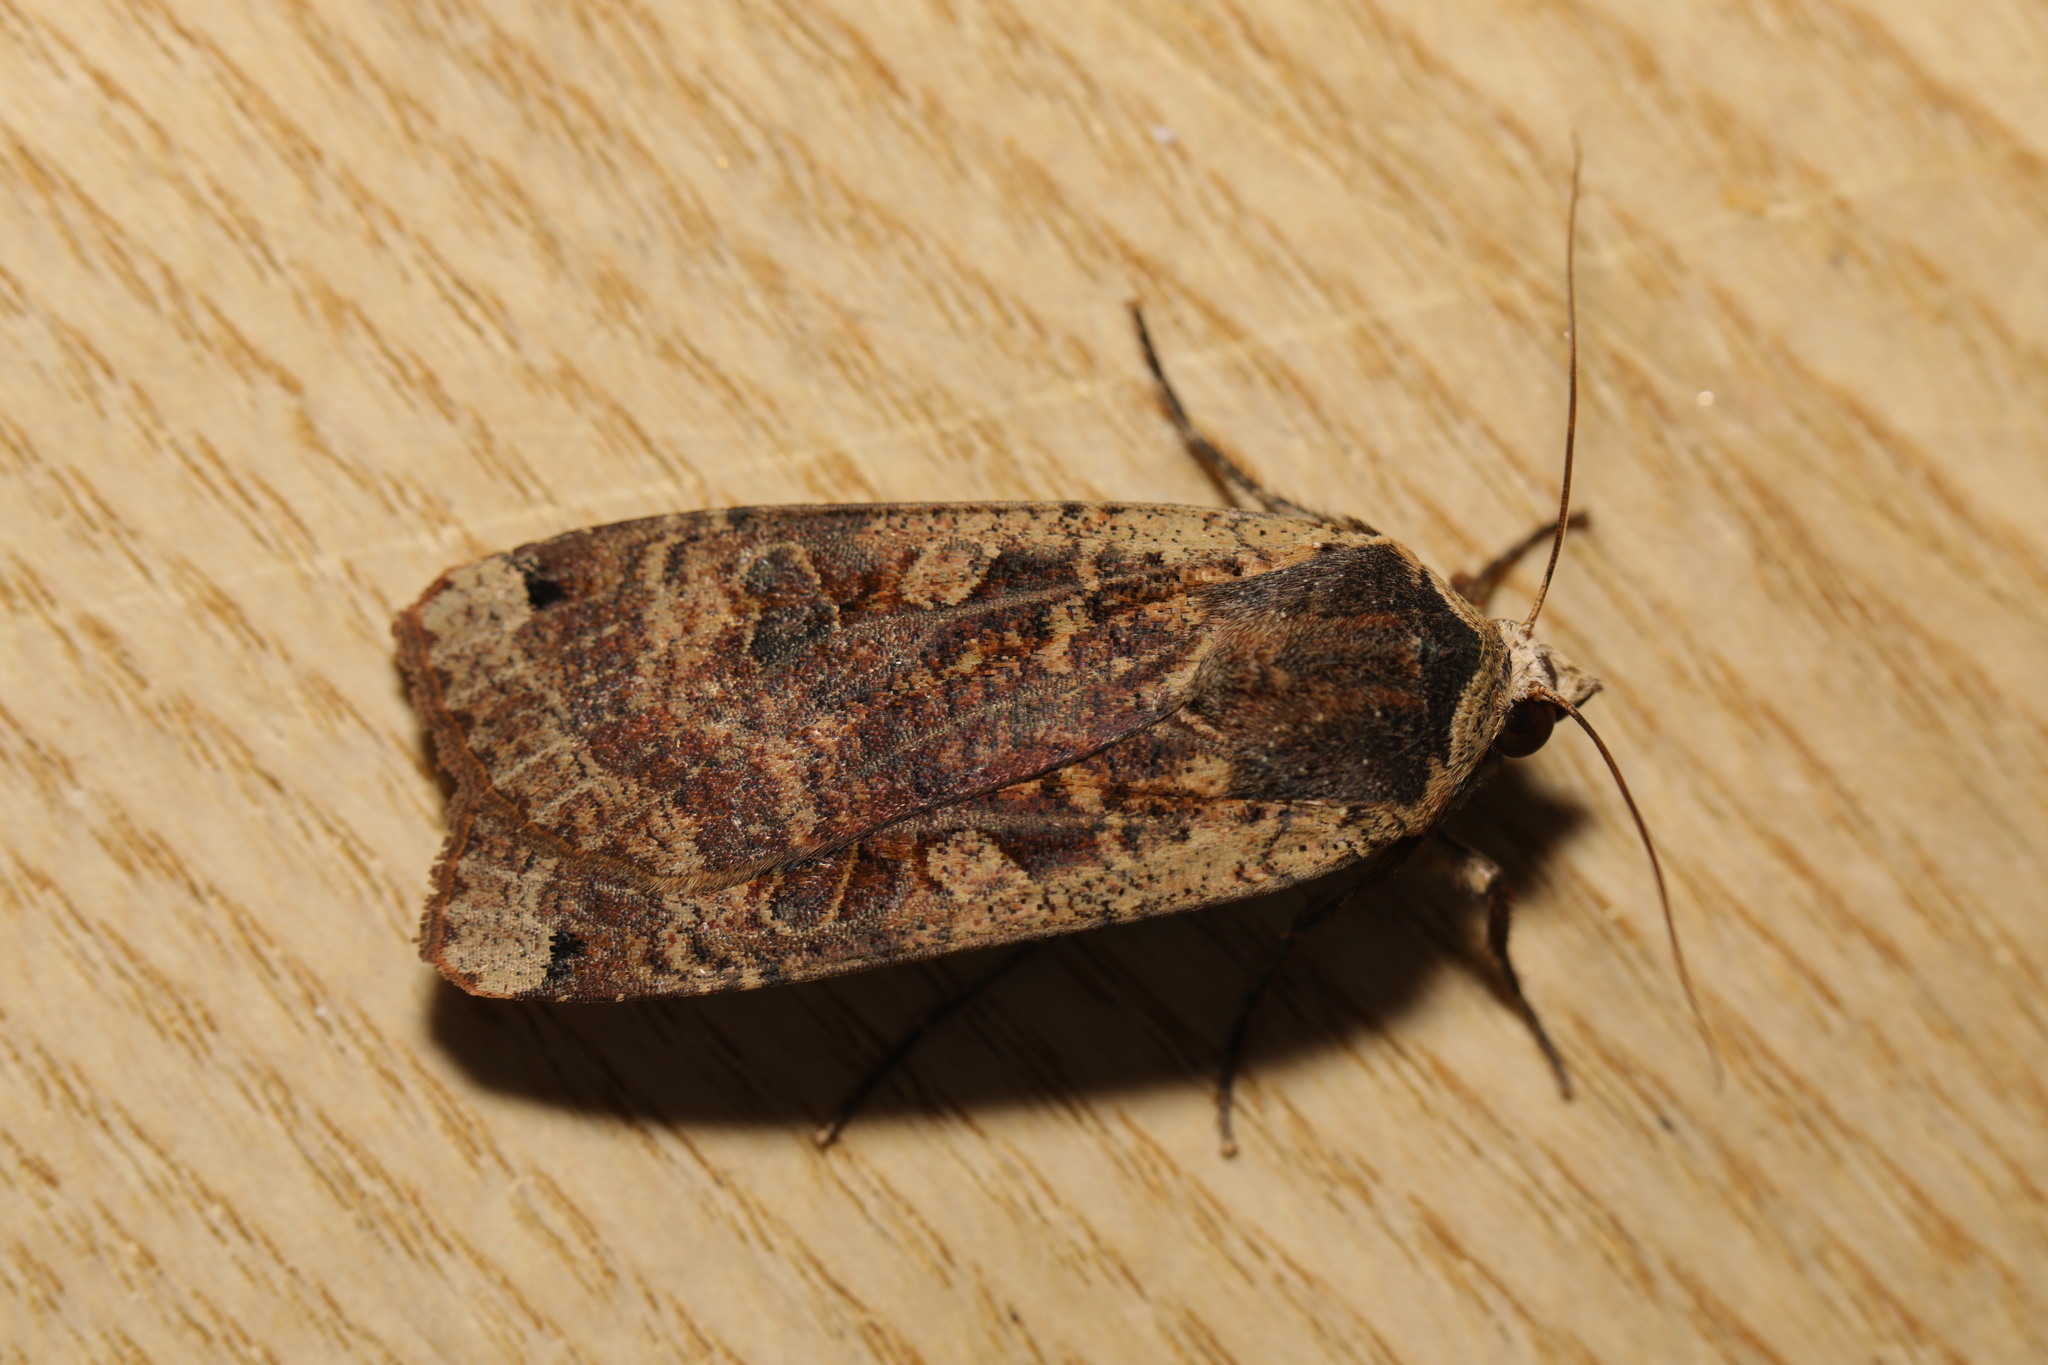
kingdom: Animalia
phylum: Arthropoda
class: Insecta
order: Lepidoptera
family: Noctuidae
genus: Noctua
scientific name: Noctua pronuba
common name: Large yellow underwing
